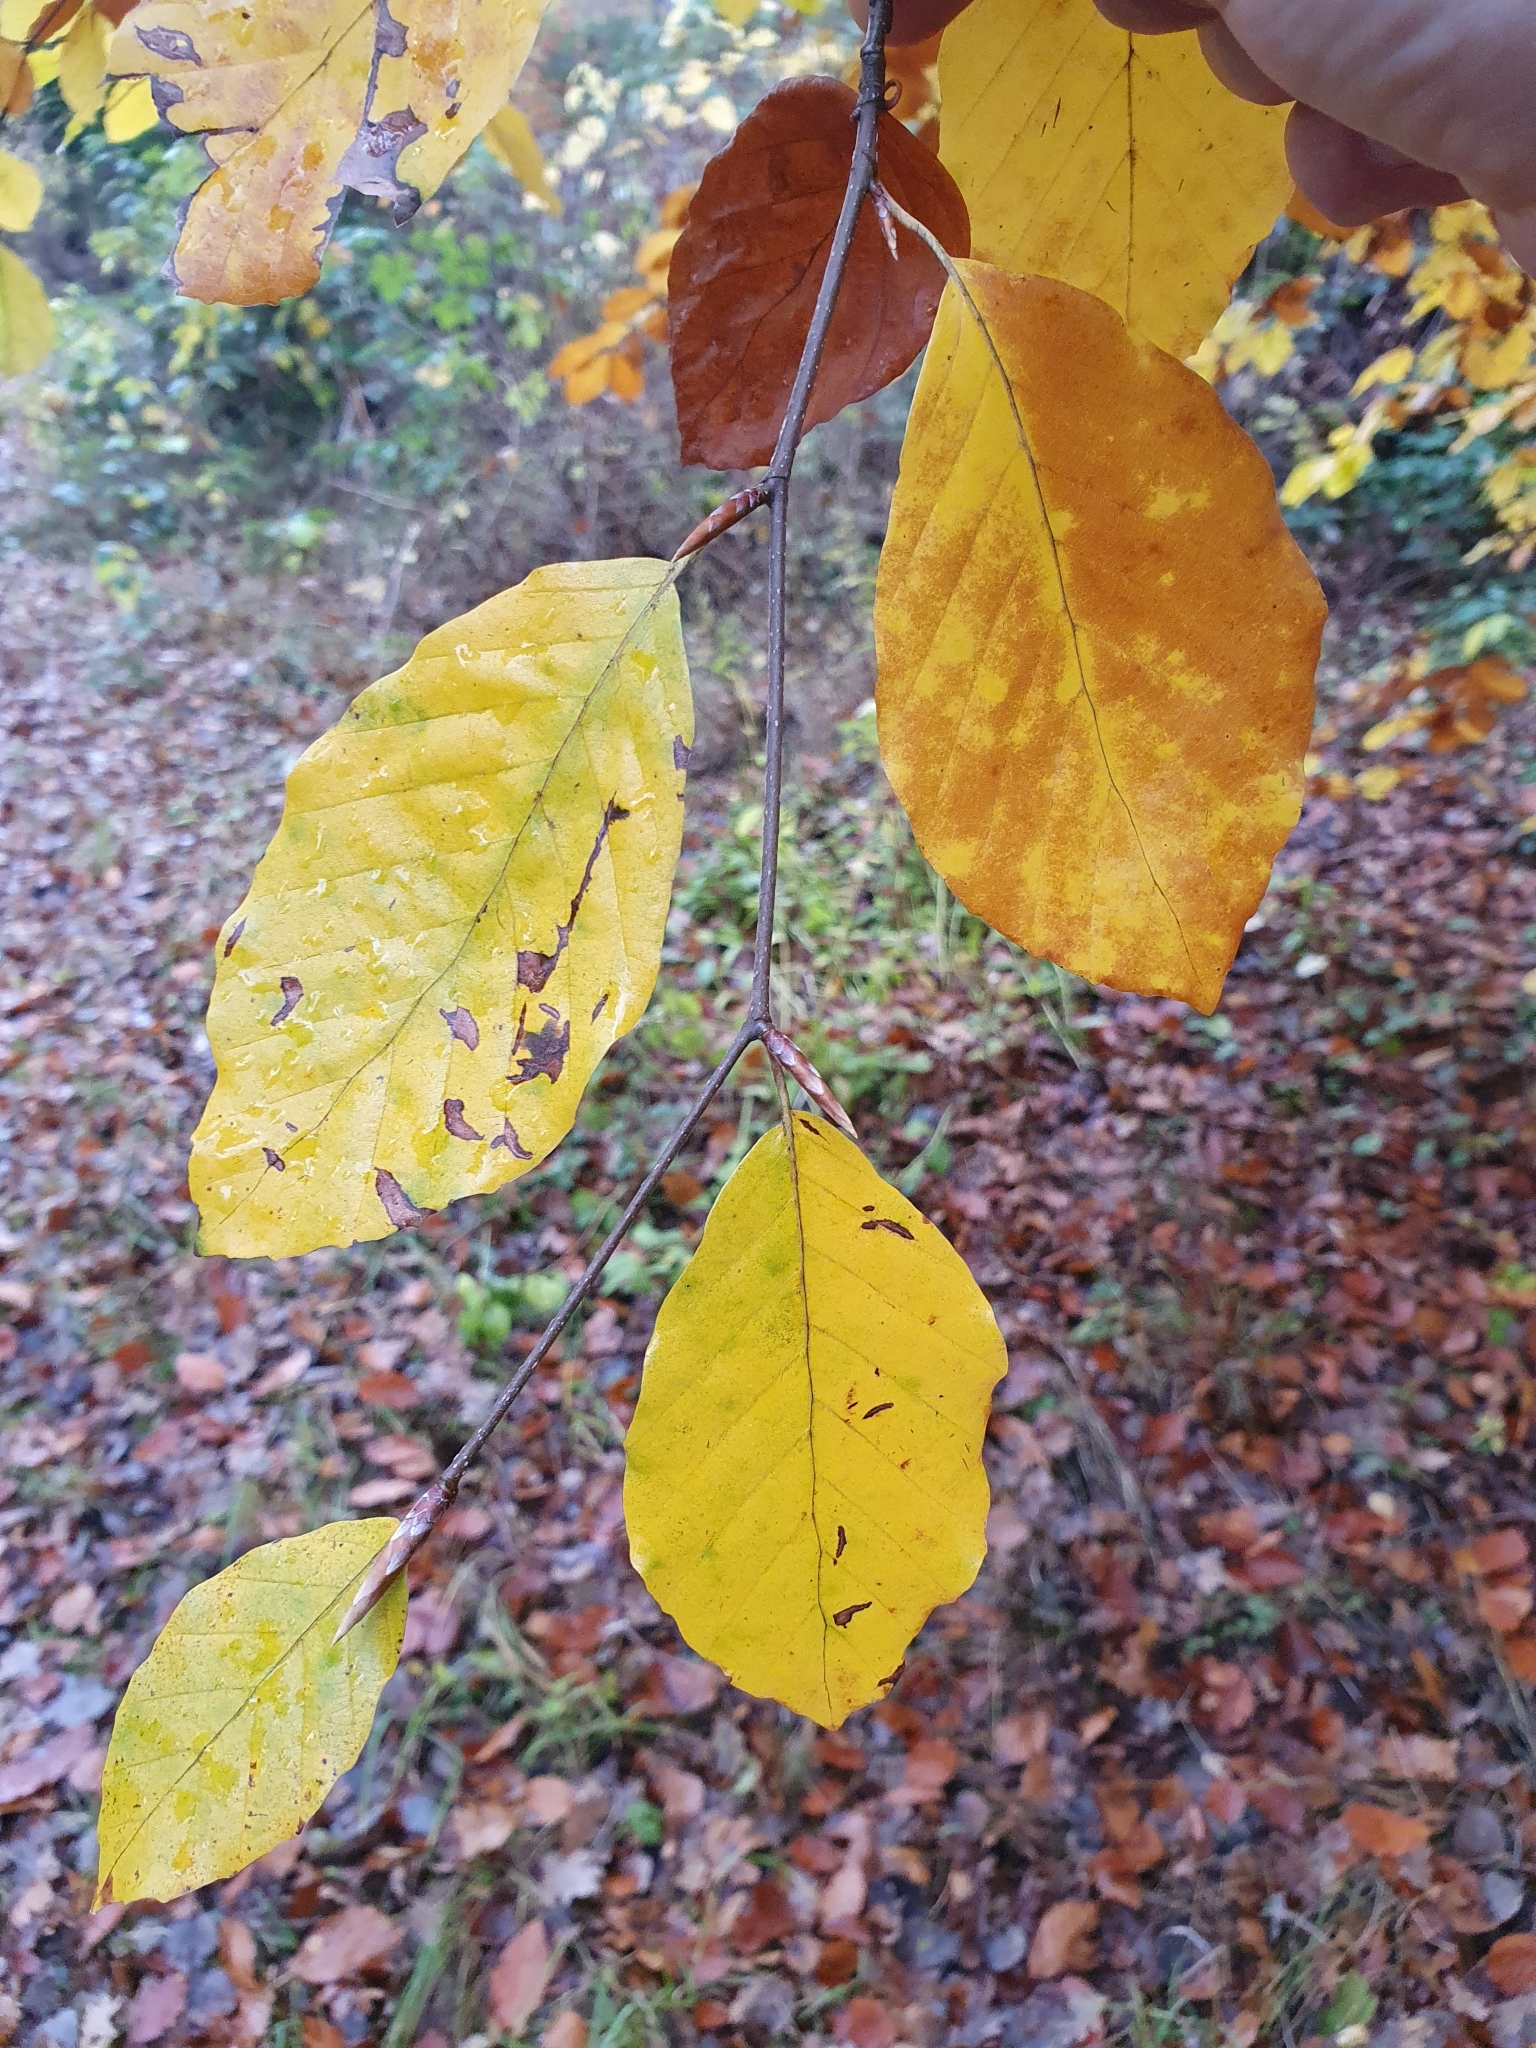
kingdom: Plantae
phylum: Tracheophyta
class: Magnoliopsida
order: Fagales
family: Fagaceae
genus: Fagus
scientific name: Fagus sylvatica
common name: Beech
